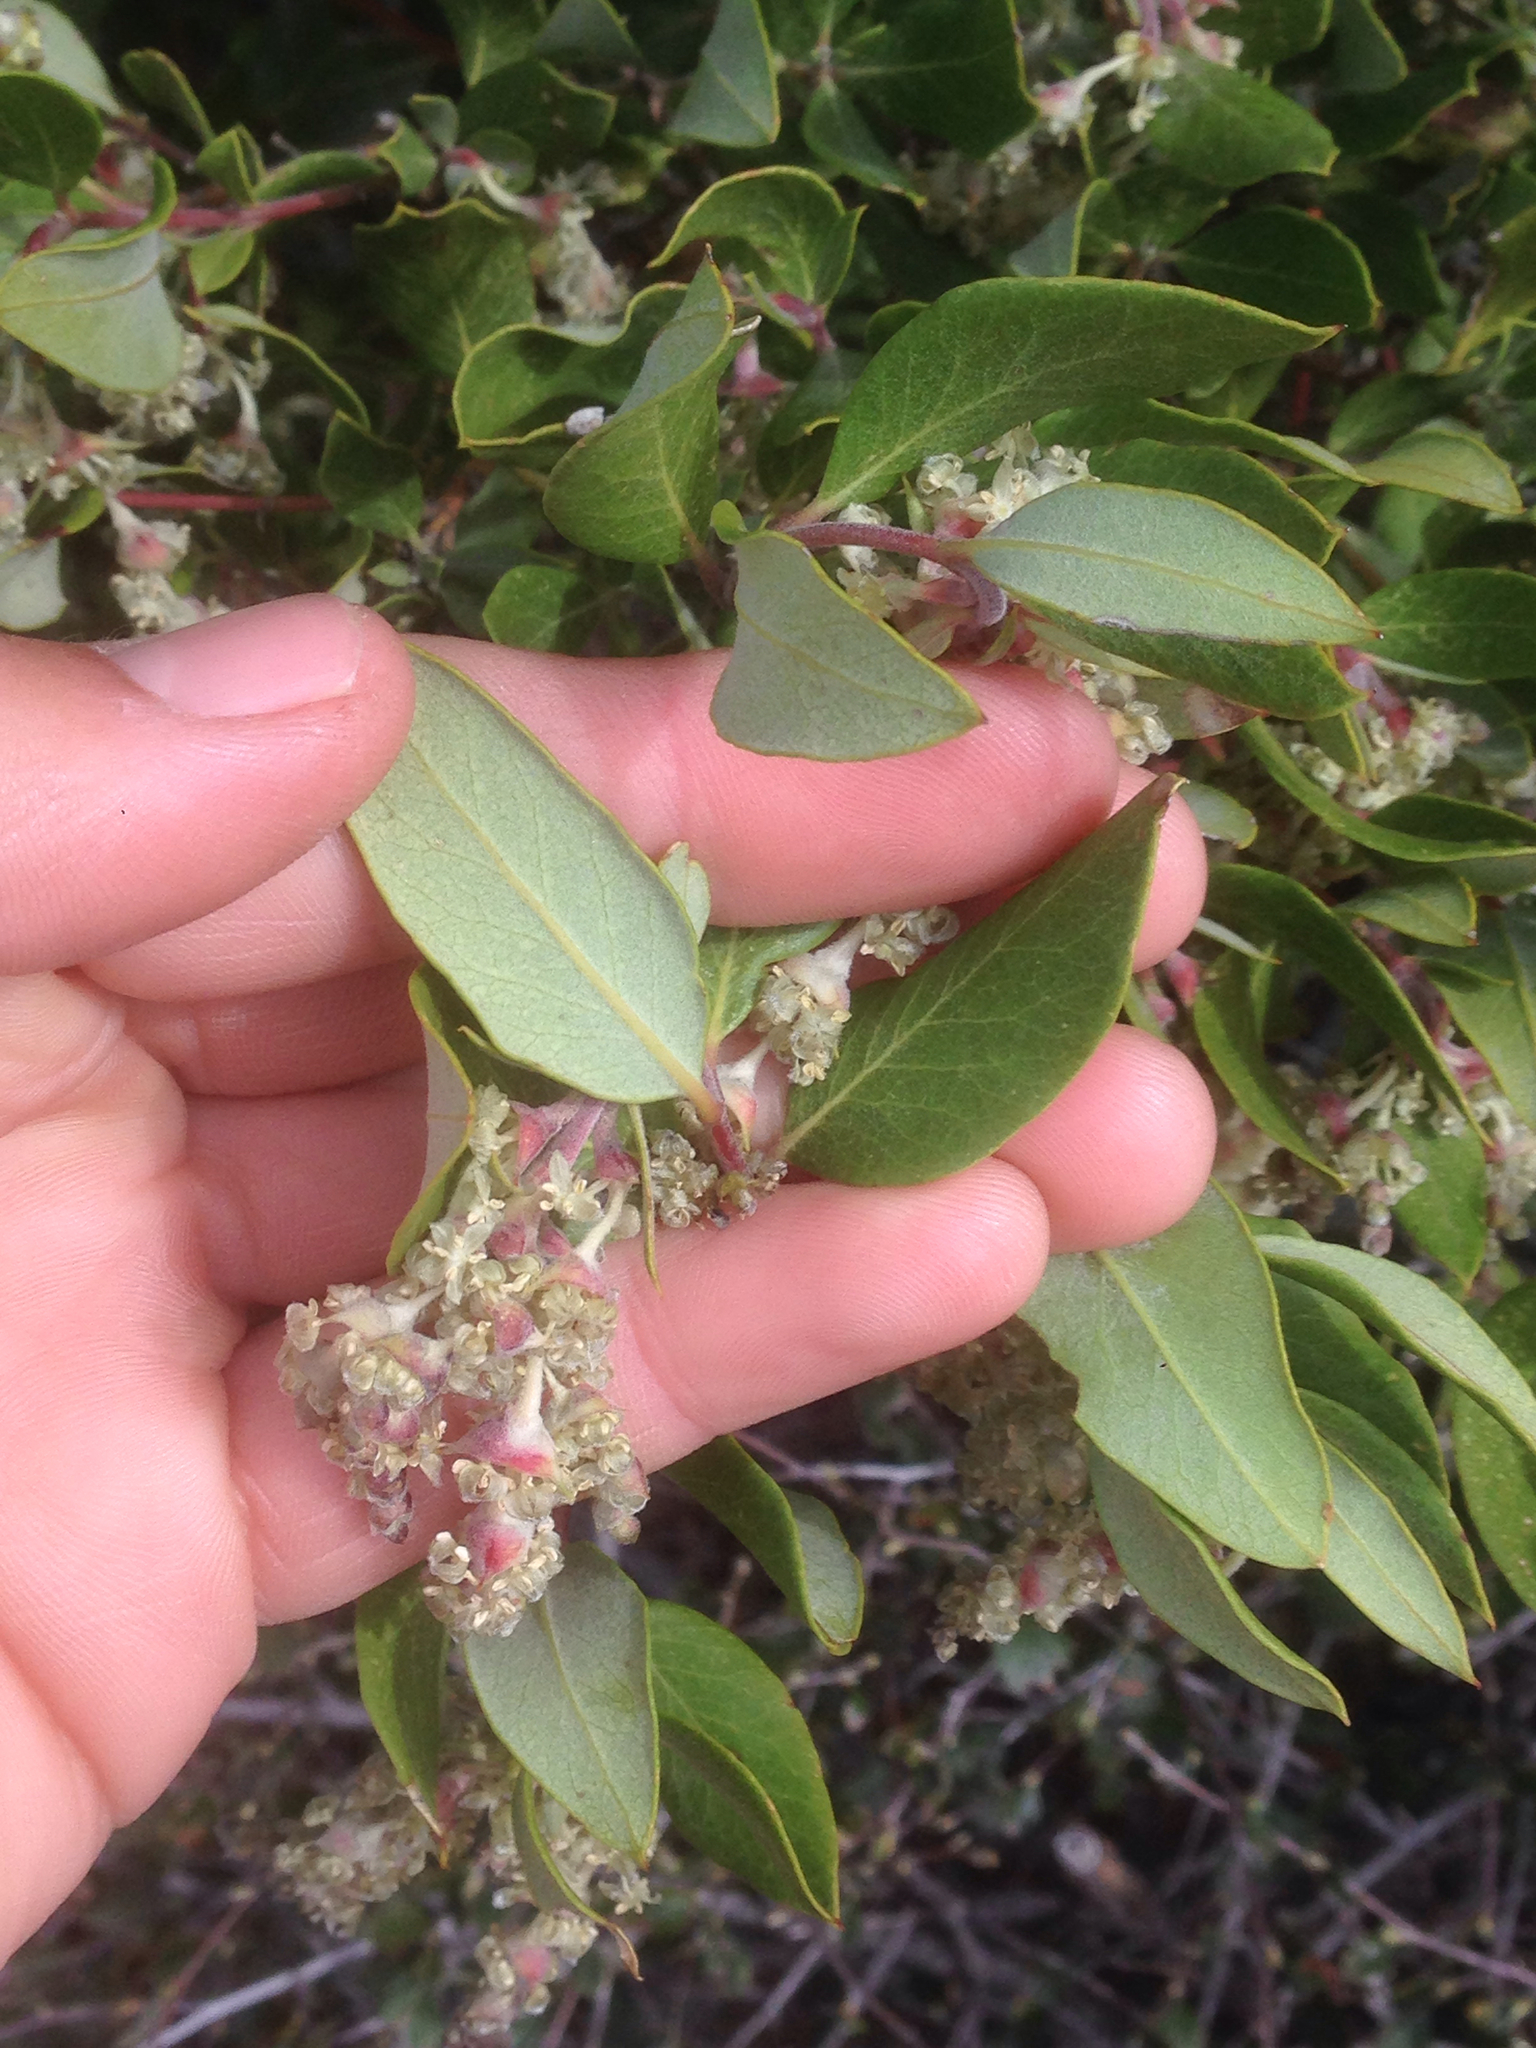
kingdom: Plantae
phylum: Tracheophyta
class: Magnoliopsida
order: Garryales
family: Garryaceae
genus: Garrya
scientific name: Garrya veatchii
